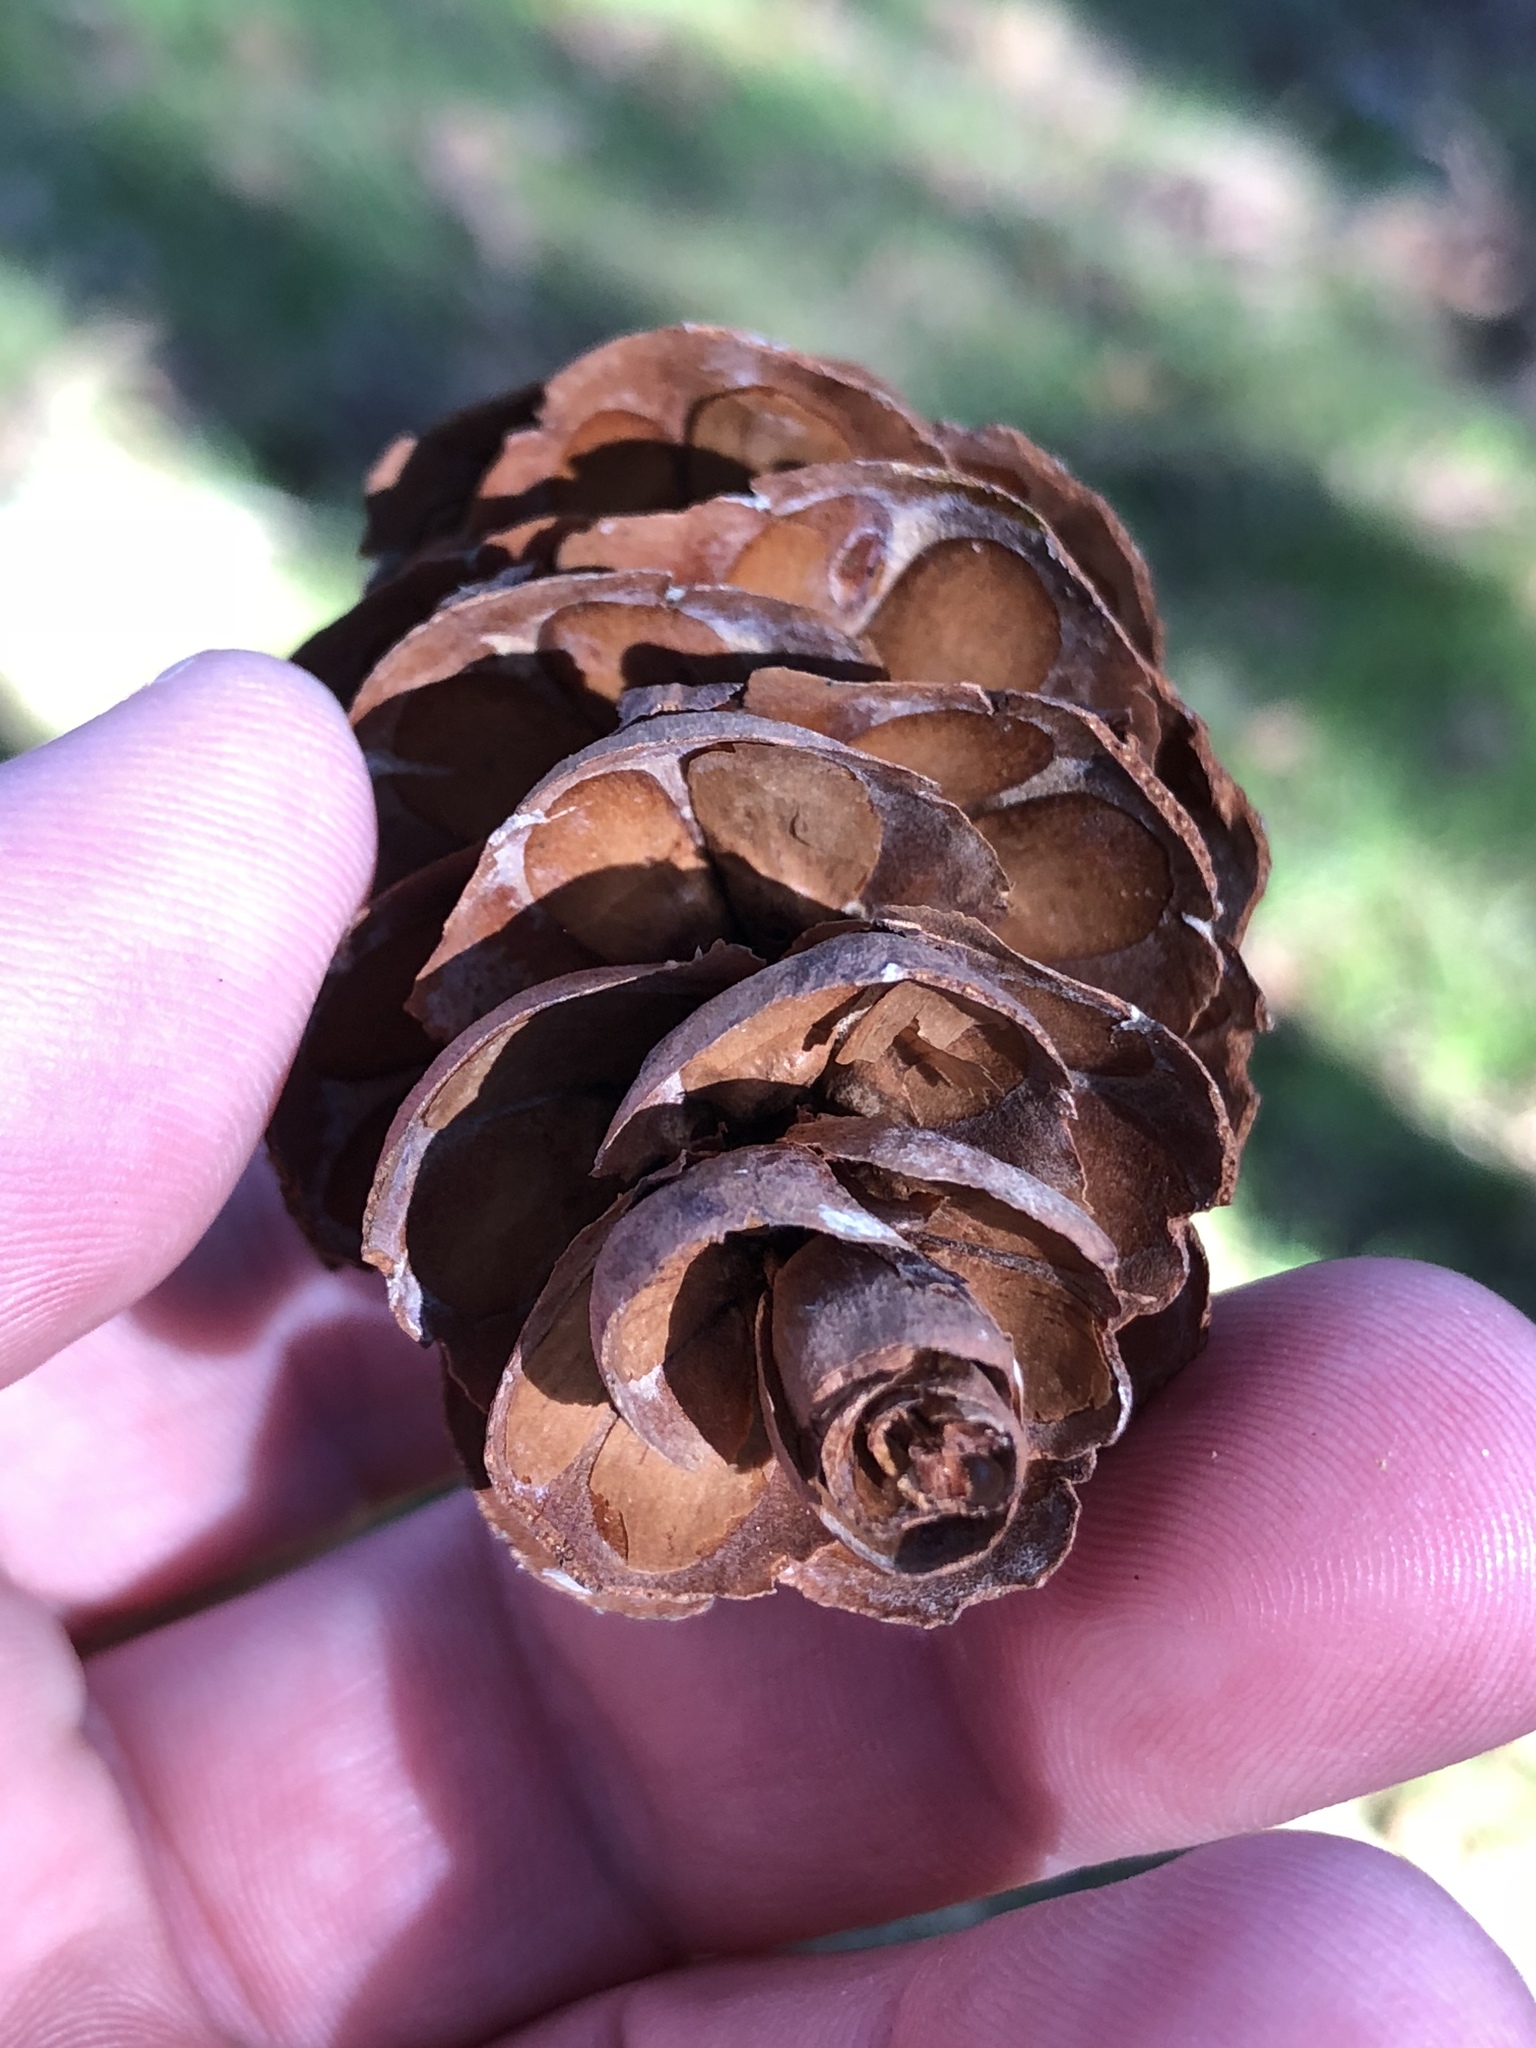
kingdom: Plantae
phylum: Tracheophyta
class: Pinopsida
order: Pinales
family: Pinaceae
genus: Pseudotsuga
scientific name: Pseudotsuga menziesii
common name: Douglas fir
